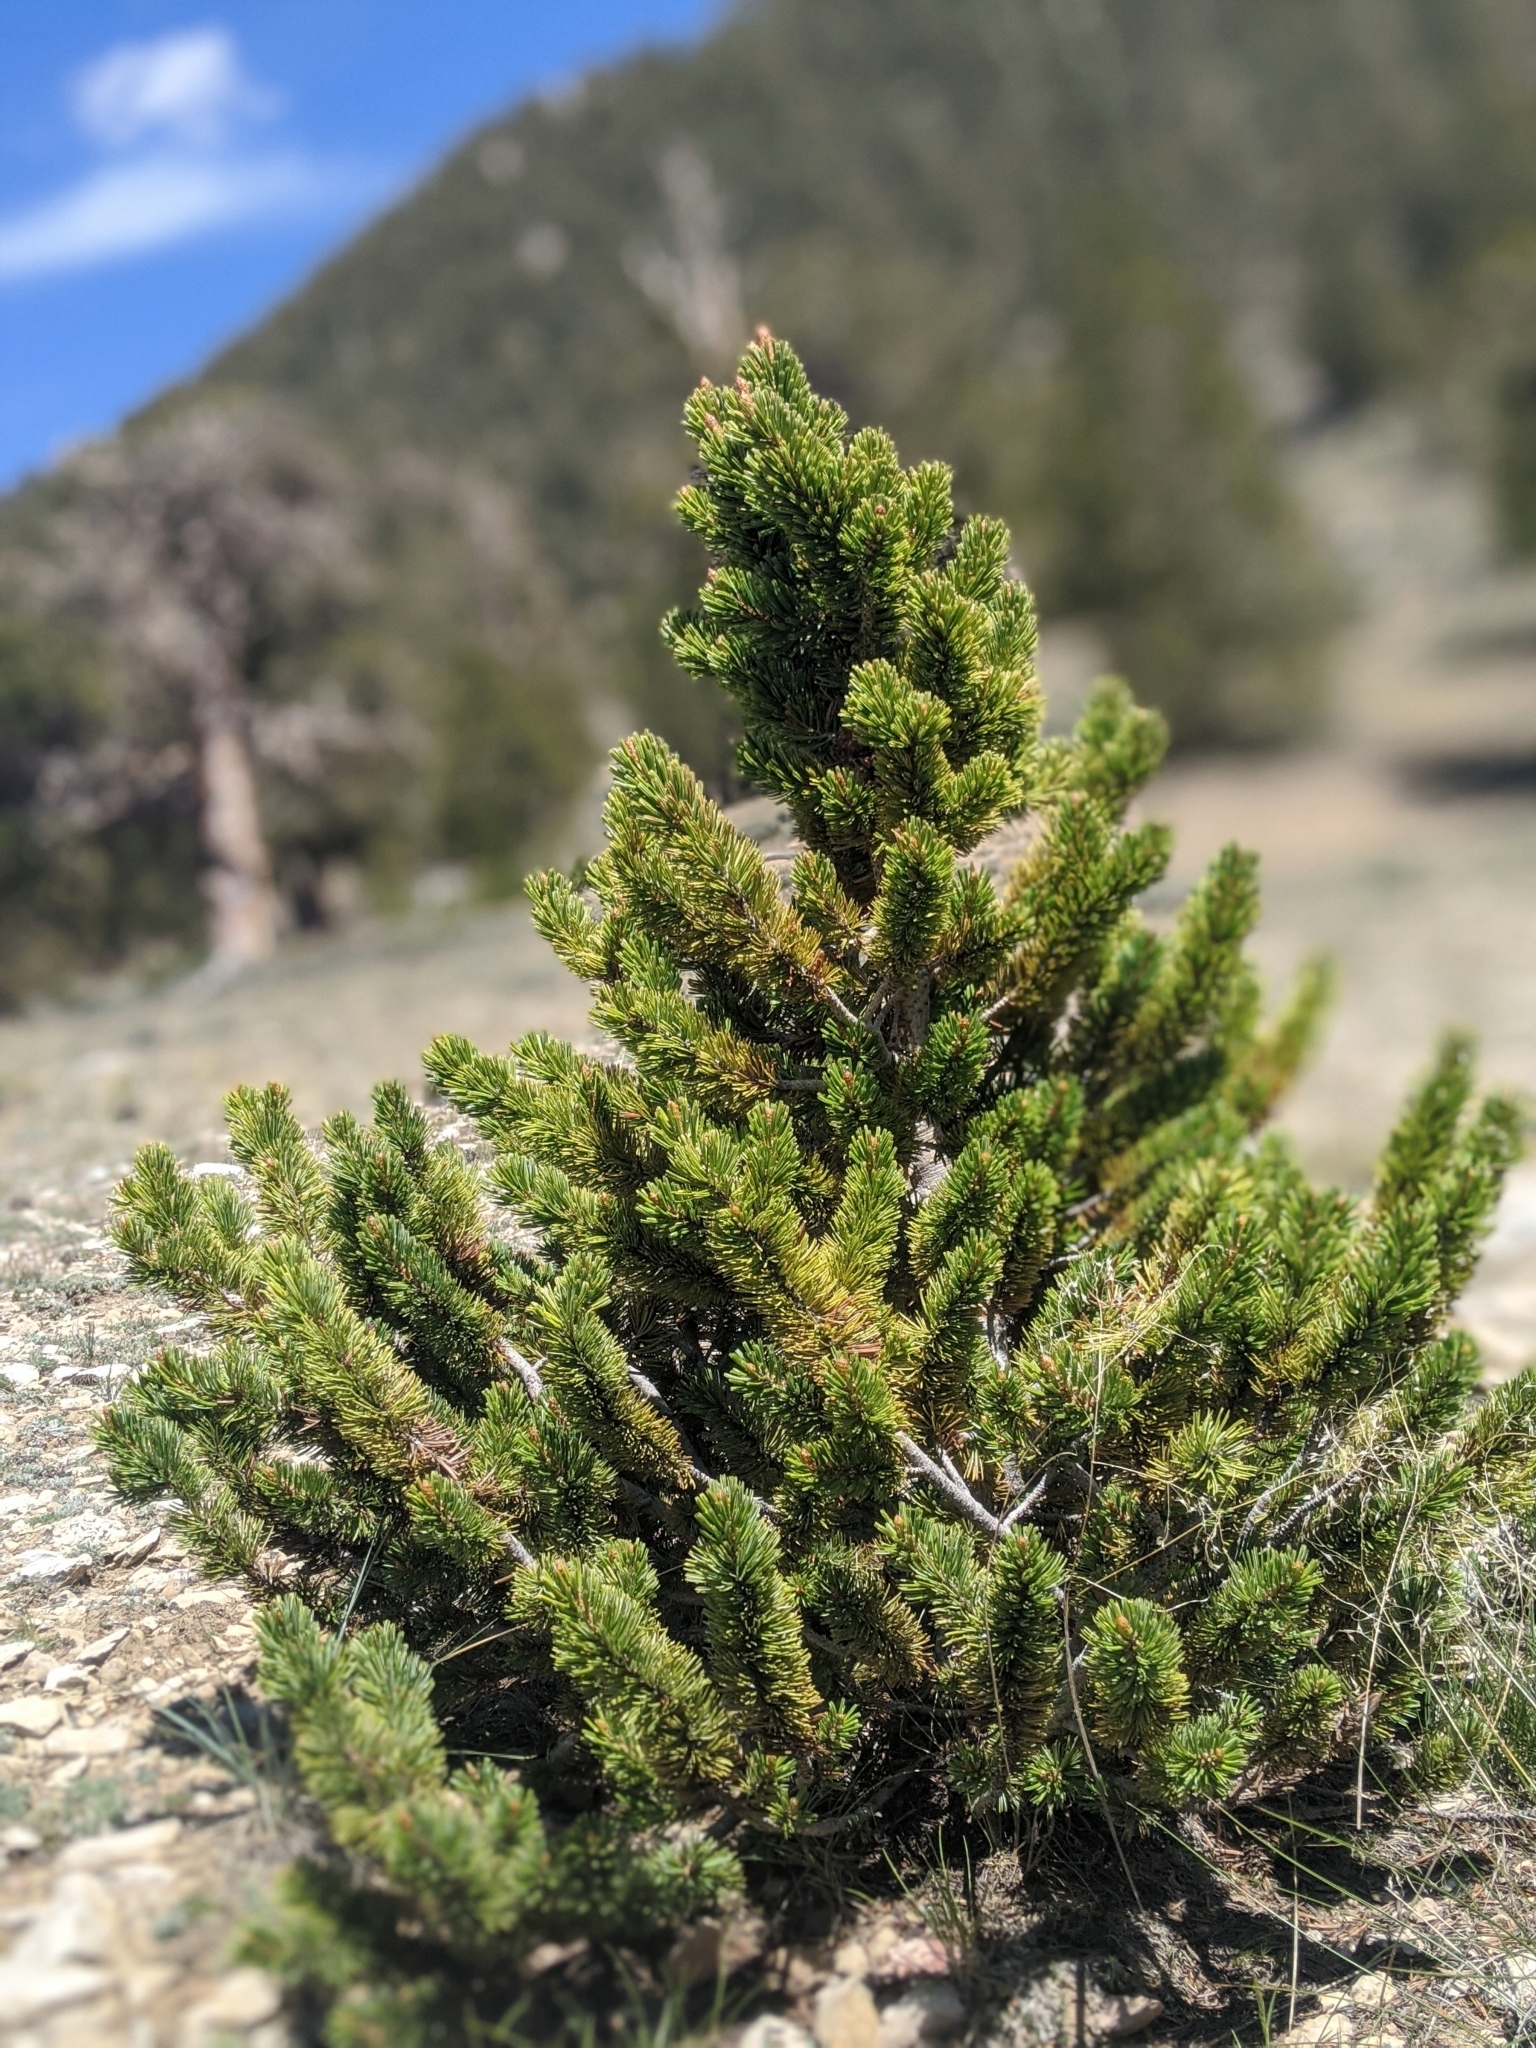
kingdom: Plantae
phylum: Tracheophyta
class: Pinopsida
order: Pinales
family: Pinaceae
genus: Pinus
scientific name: Pinus longaeva
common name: Intermountain bristlecone pine
